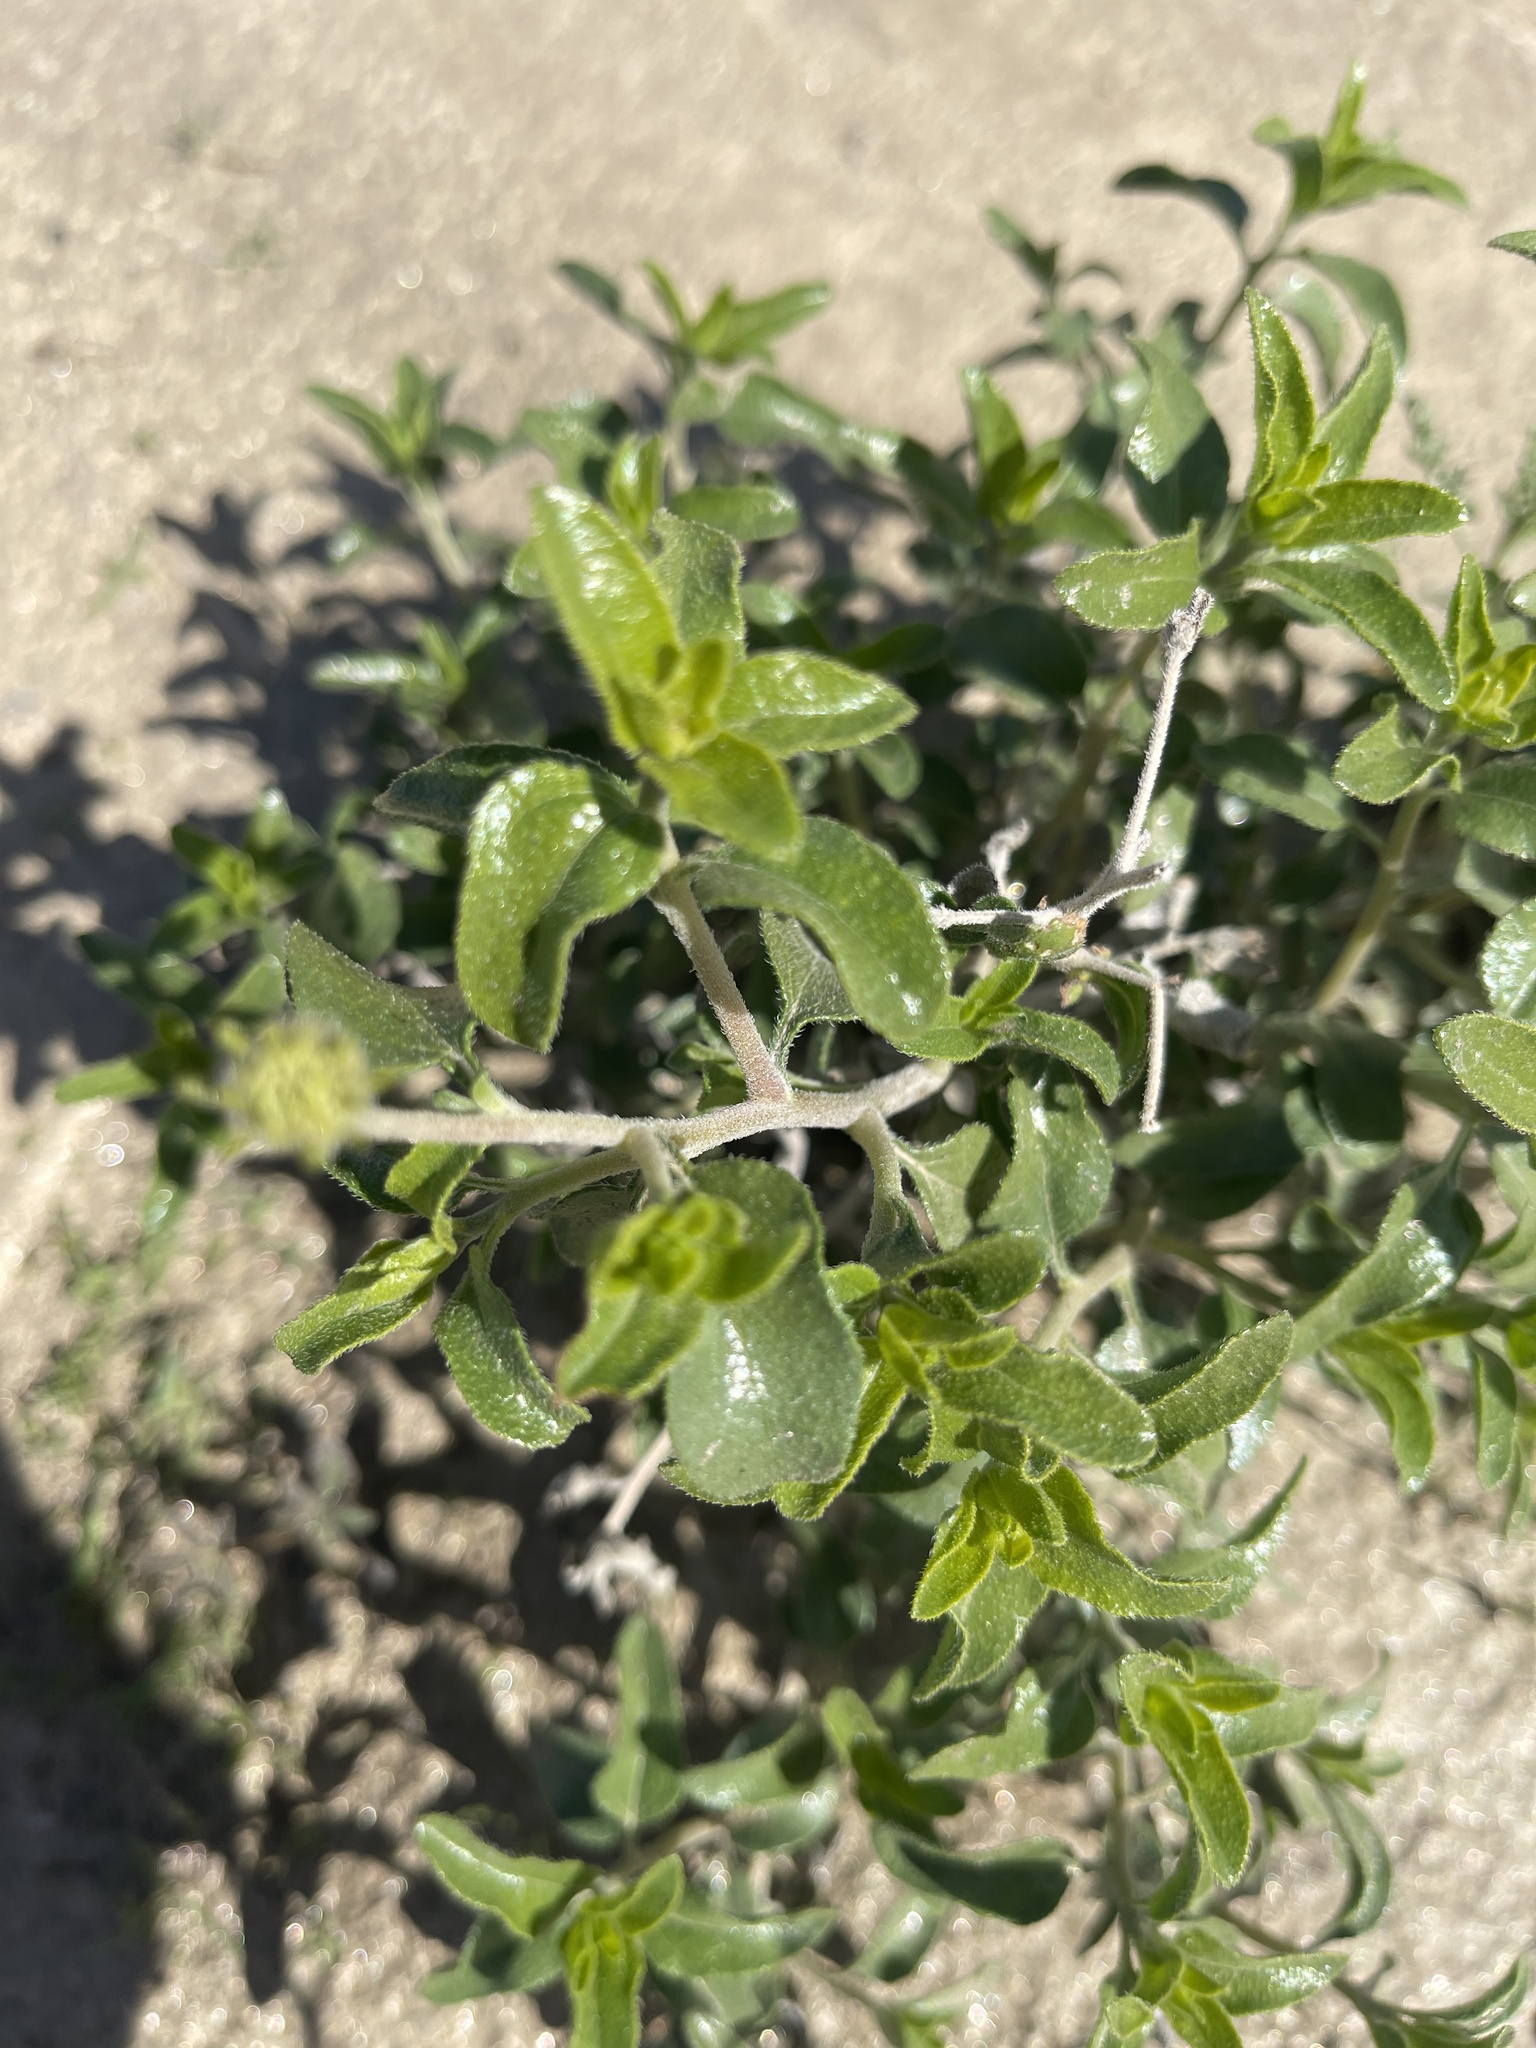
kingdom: Plantae
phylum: Tracheophyta
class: Magnoliopsida
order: Asterales
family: Asteraceae
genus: Encelia
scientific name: Encelia frutescens
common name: Bush encelia
